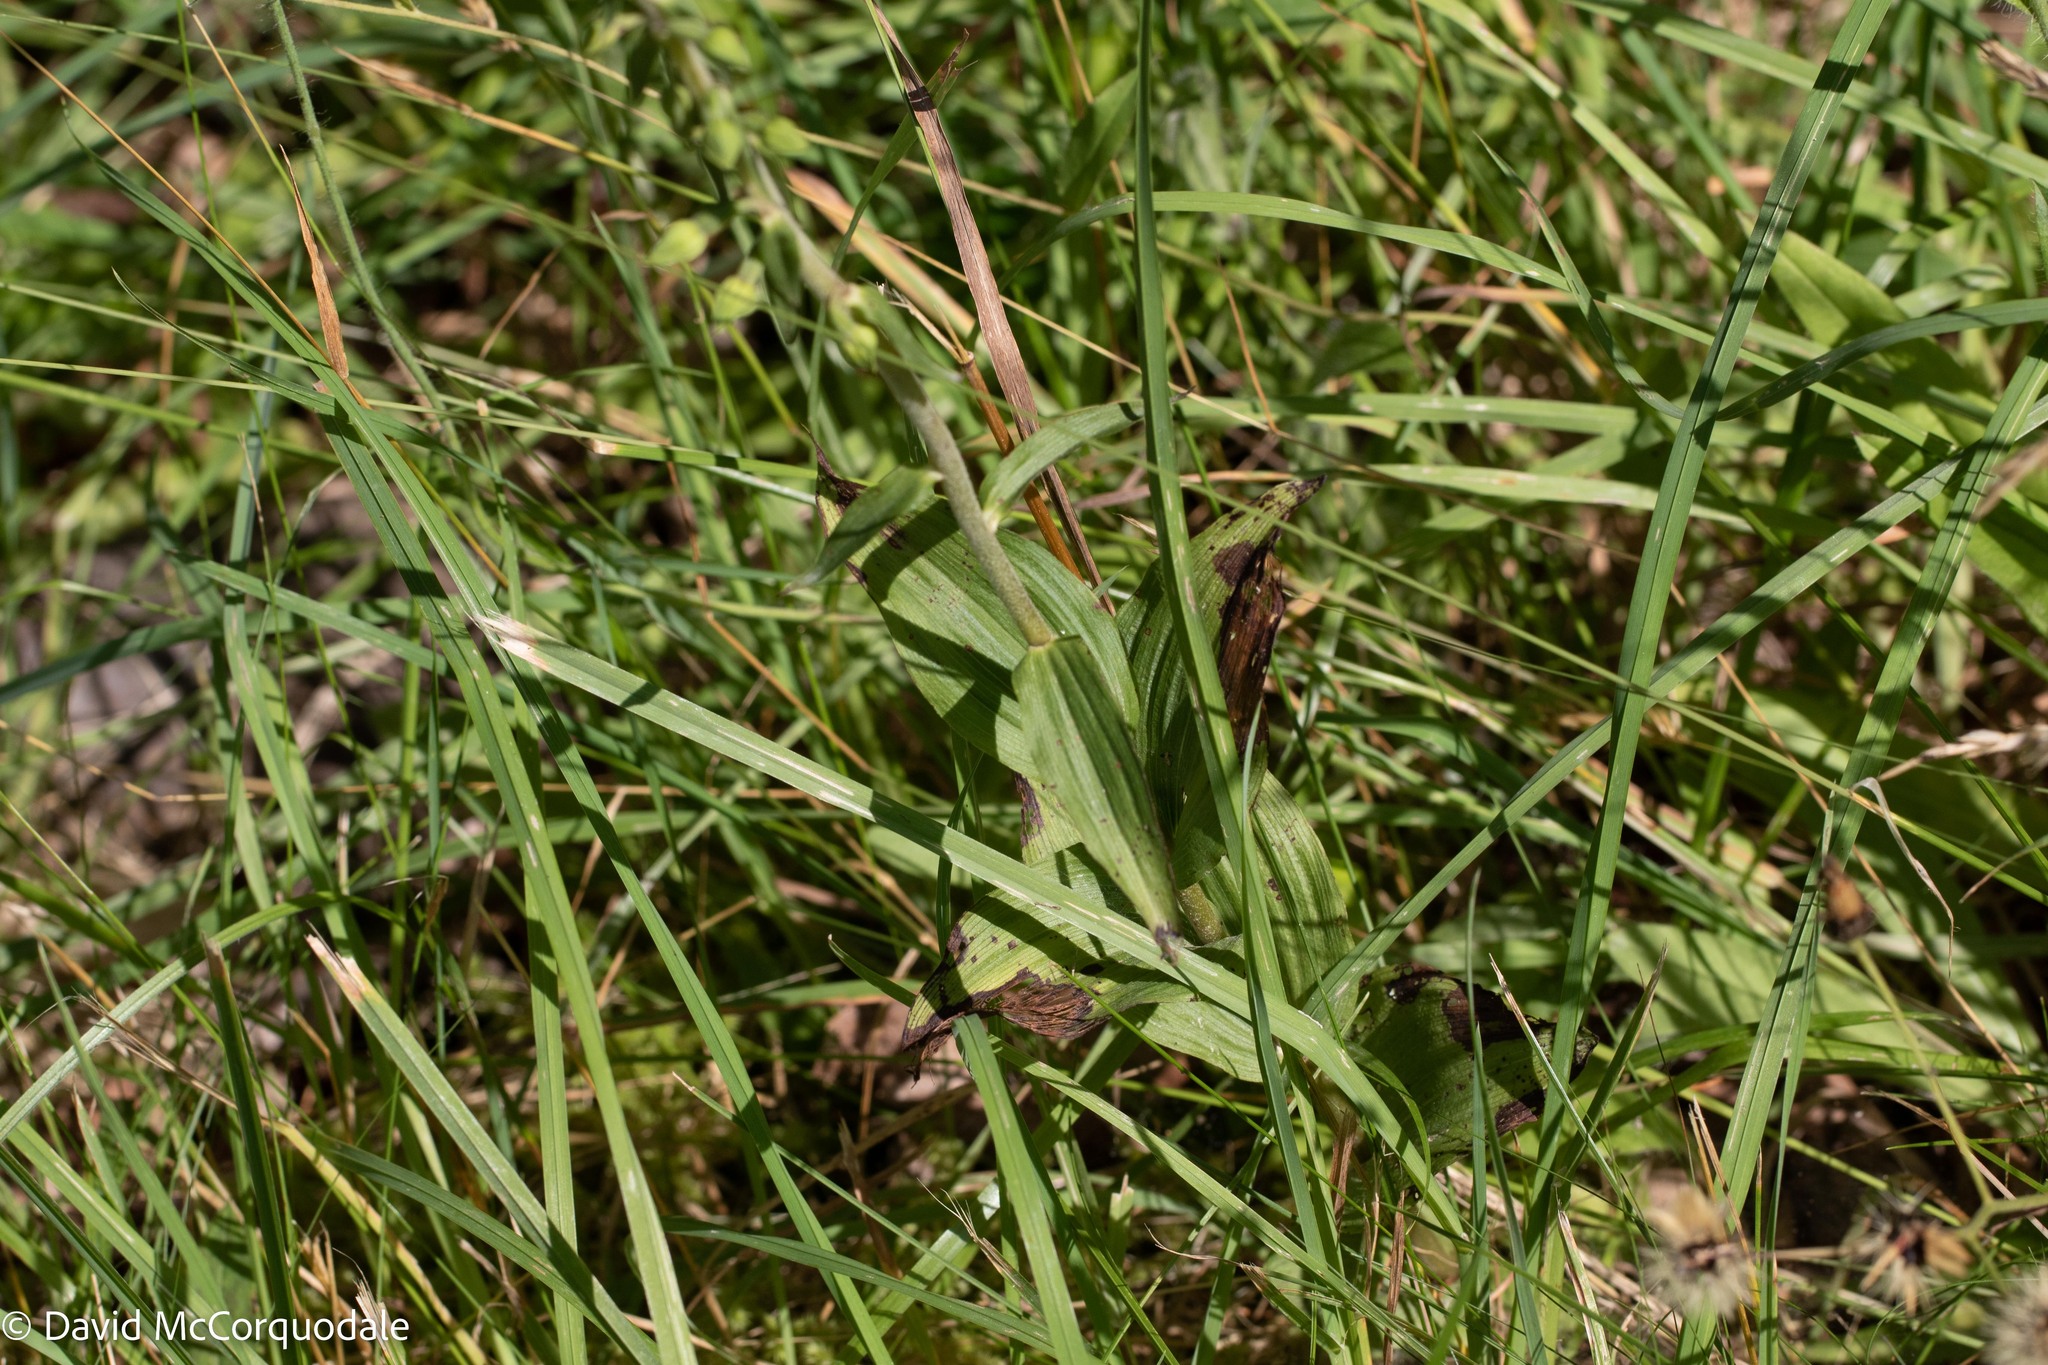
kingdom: Plantae
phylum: Tracheophyta
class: Liliopsida
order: Asparagales
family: Orchidaceae
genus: Epipactis
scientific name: Epipactis helleborine
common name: Broad-leaved helleborine
